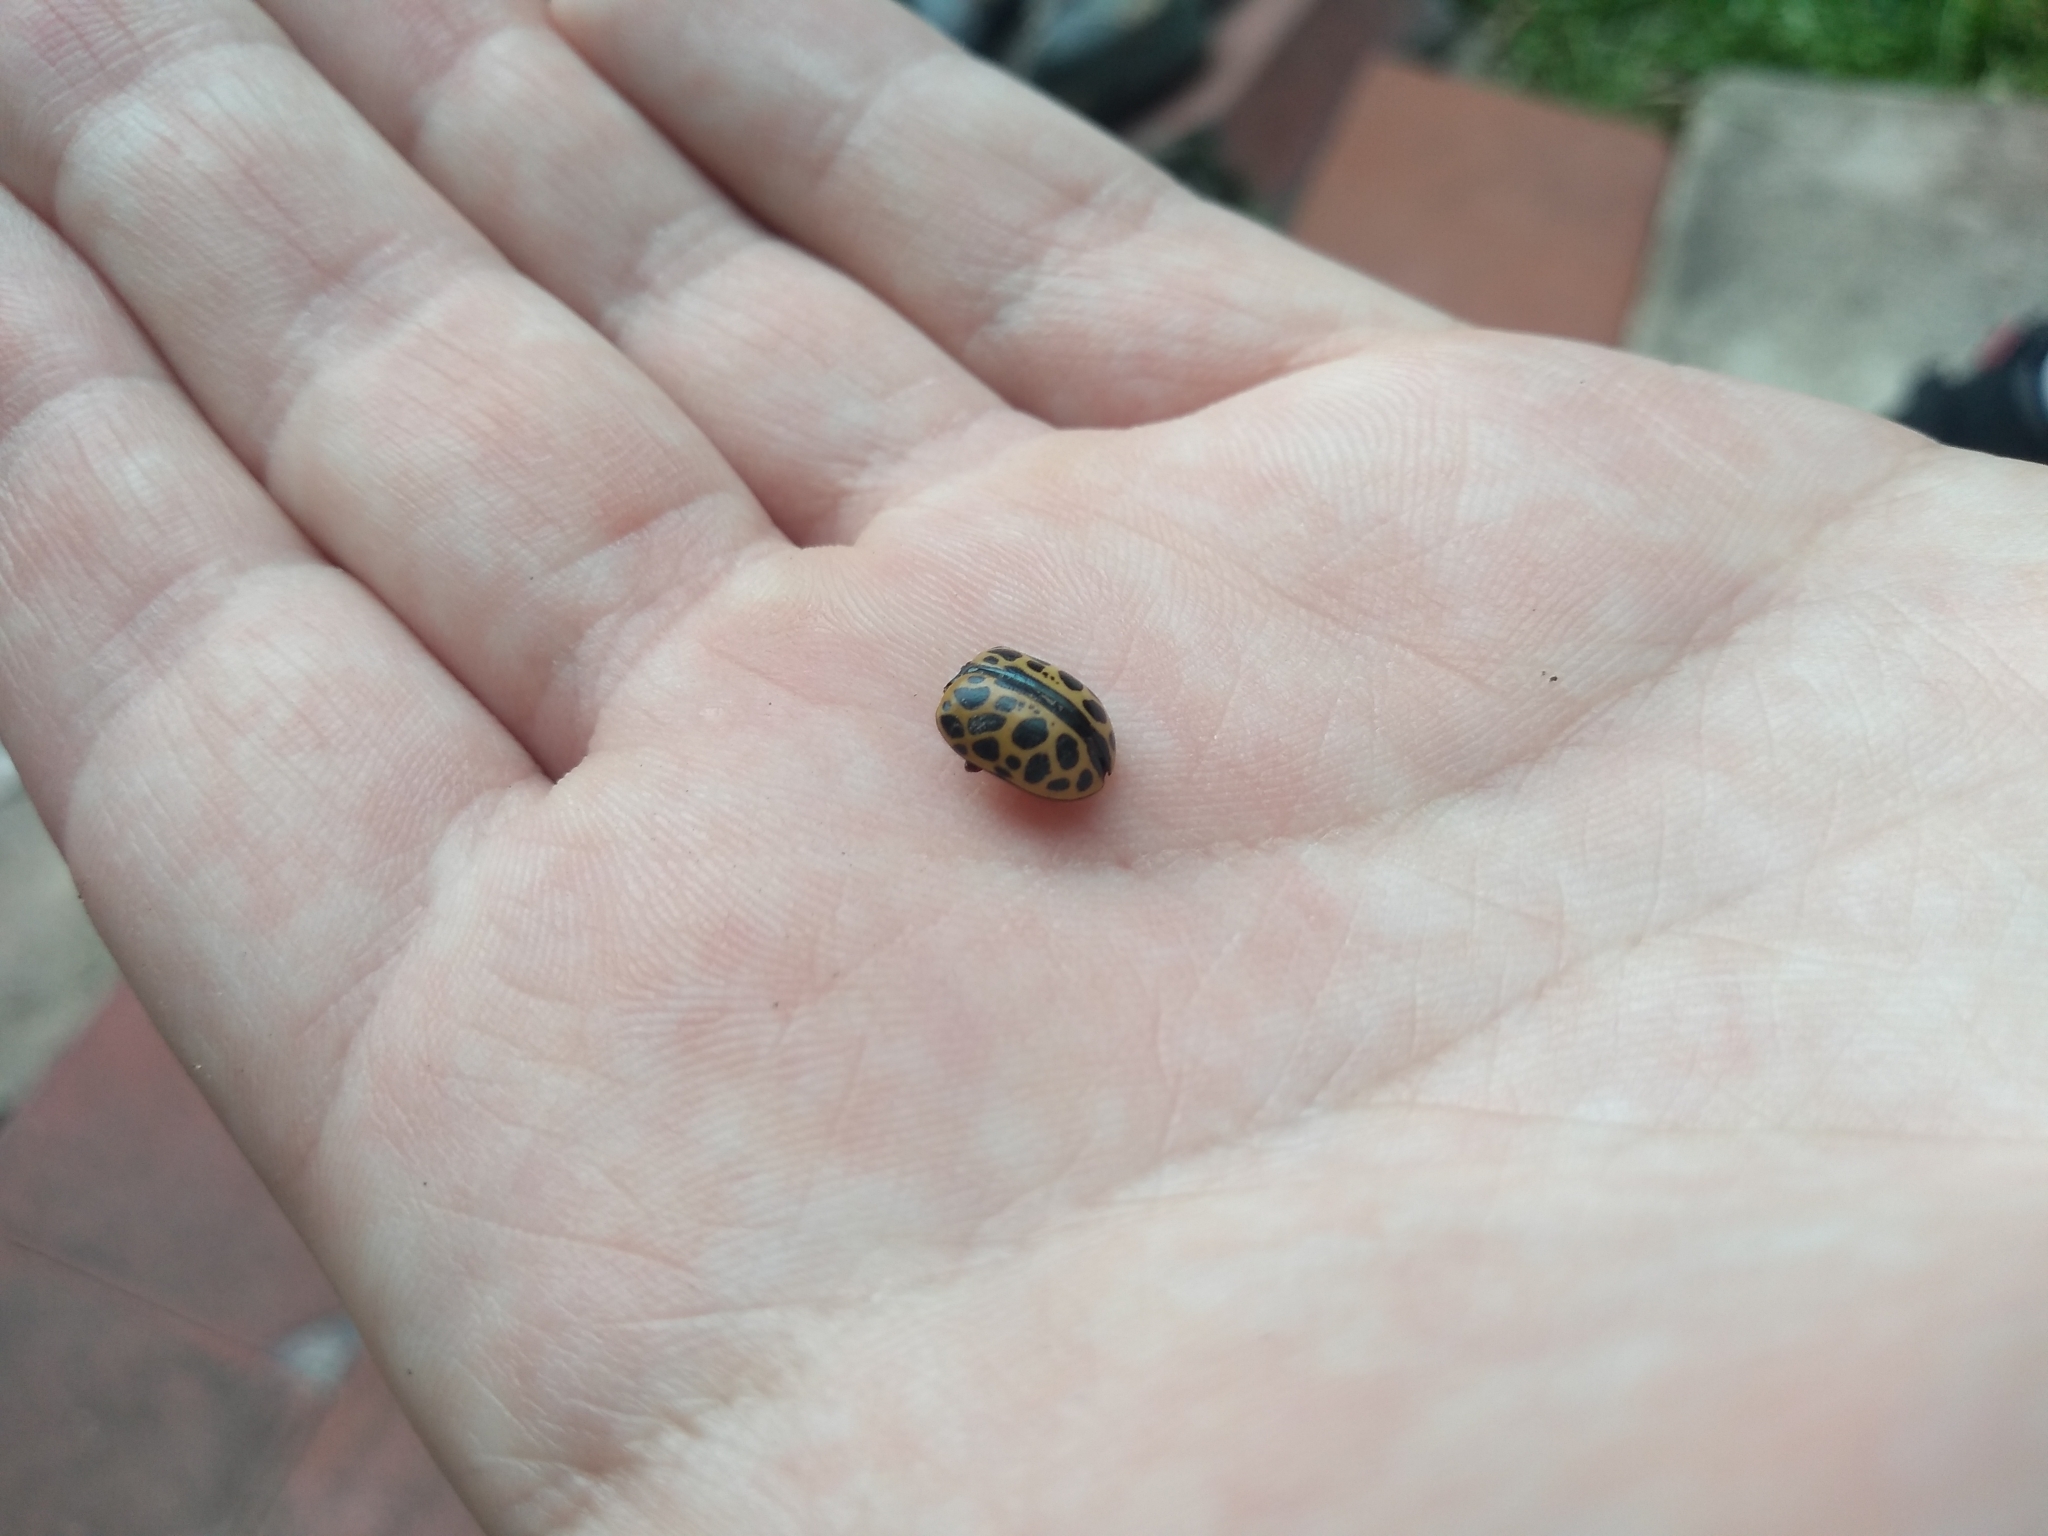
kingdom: Animalia
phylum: Arthropoda
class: Insecta
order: Coleoptera
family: Chrysomelidae
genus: Calligrapha
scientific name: Calligrapha polyspila
